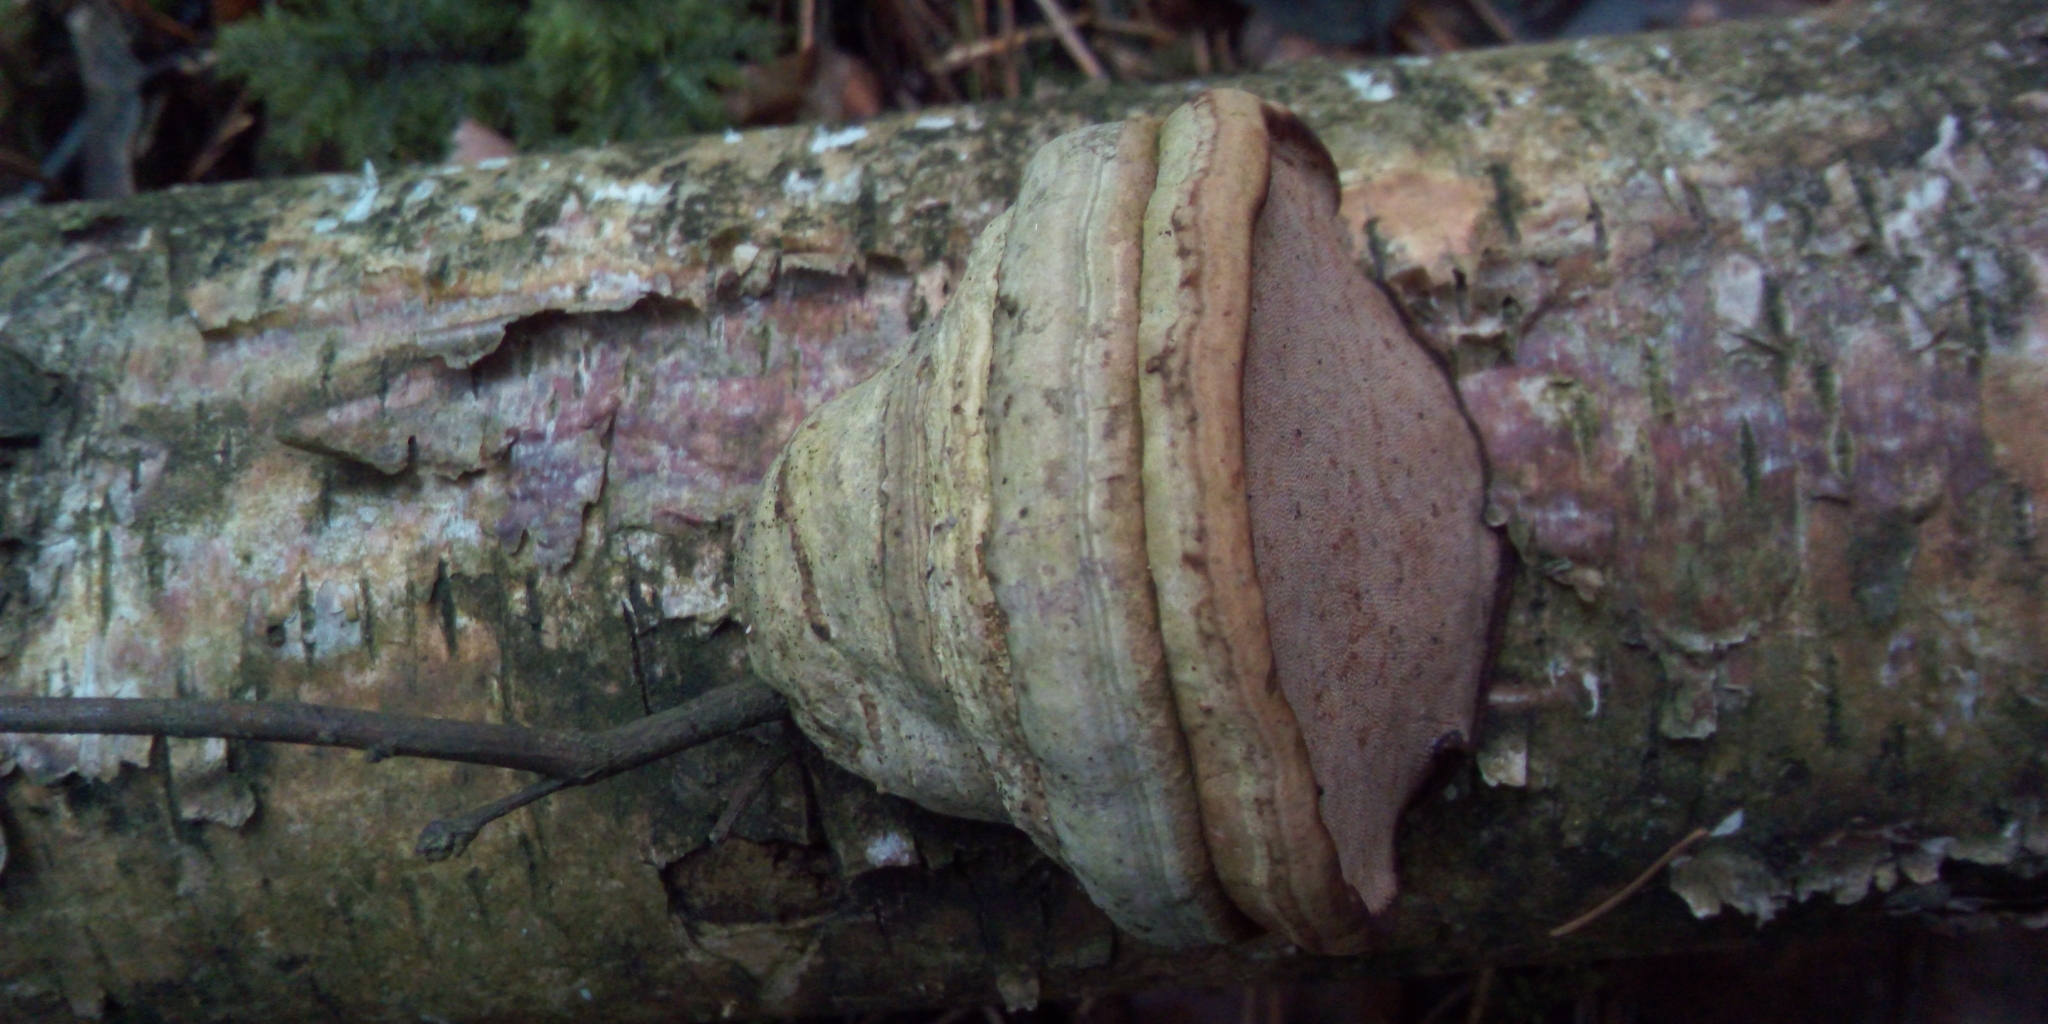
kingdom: Fungi
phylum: Basidiomycota
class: Agaricomycetes
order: Polyporales
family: Polyporaceae
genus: Fomes
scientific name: Fomes fomentarius
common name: Hoof fungus
